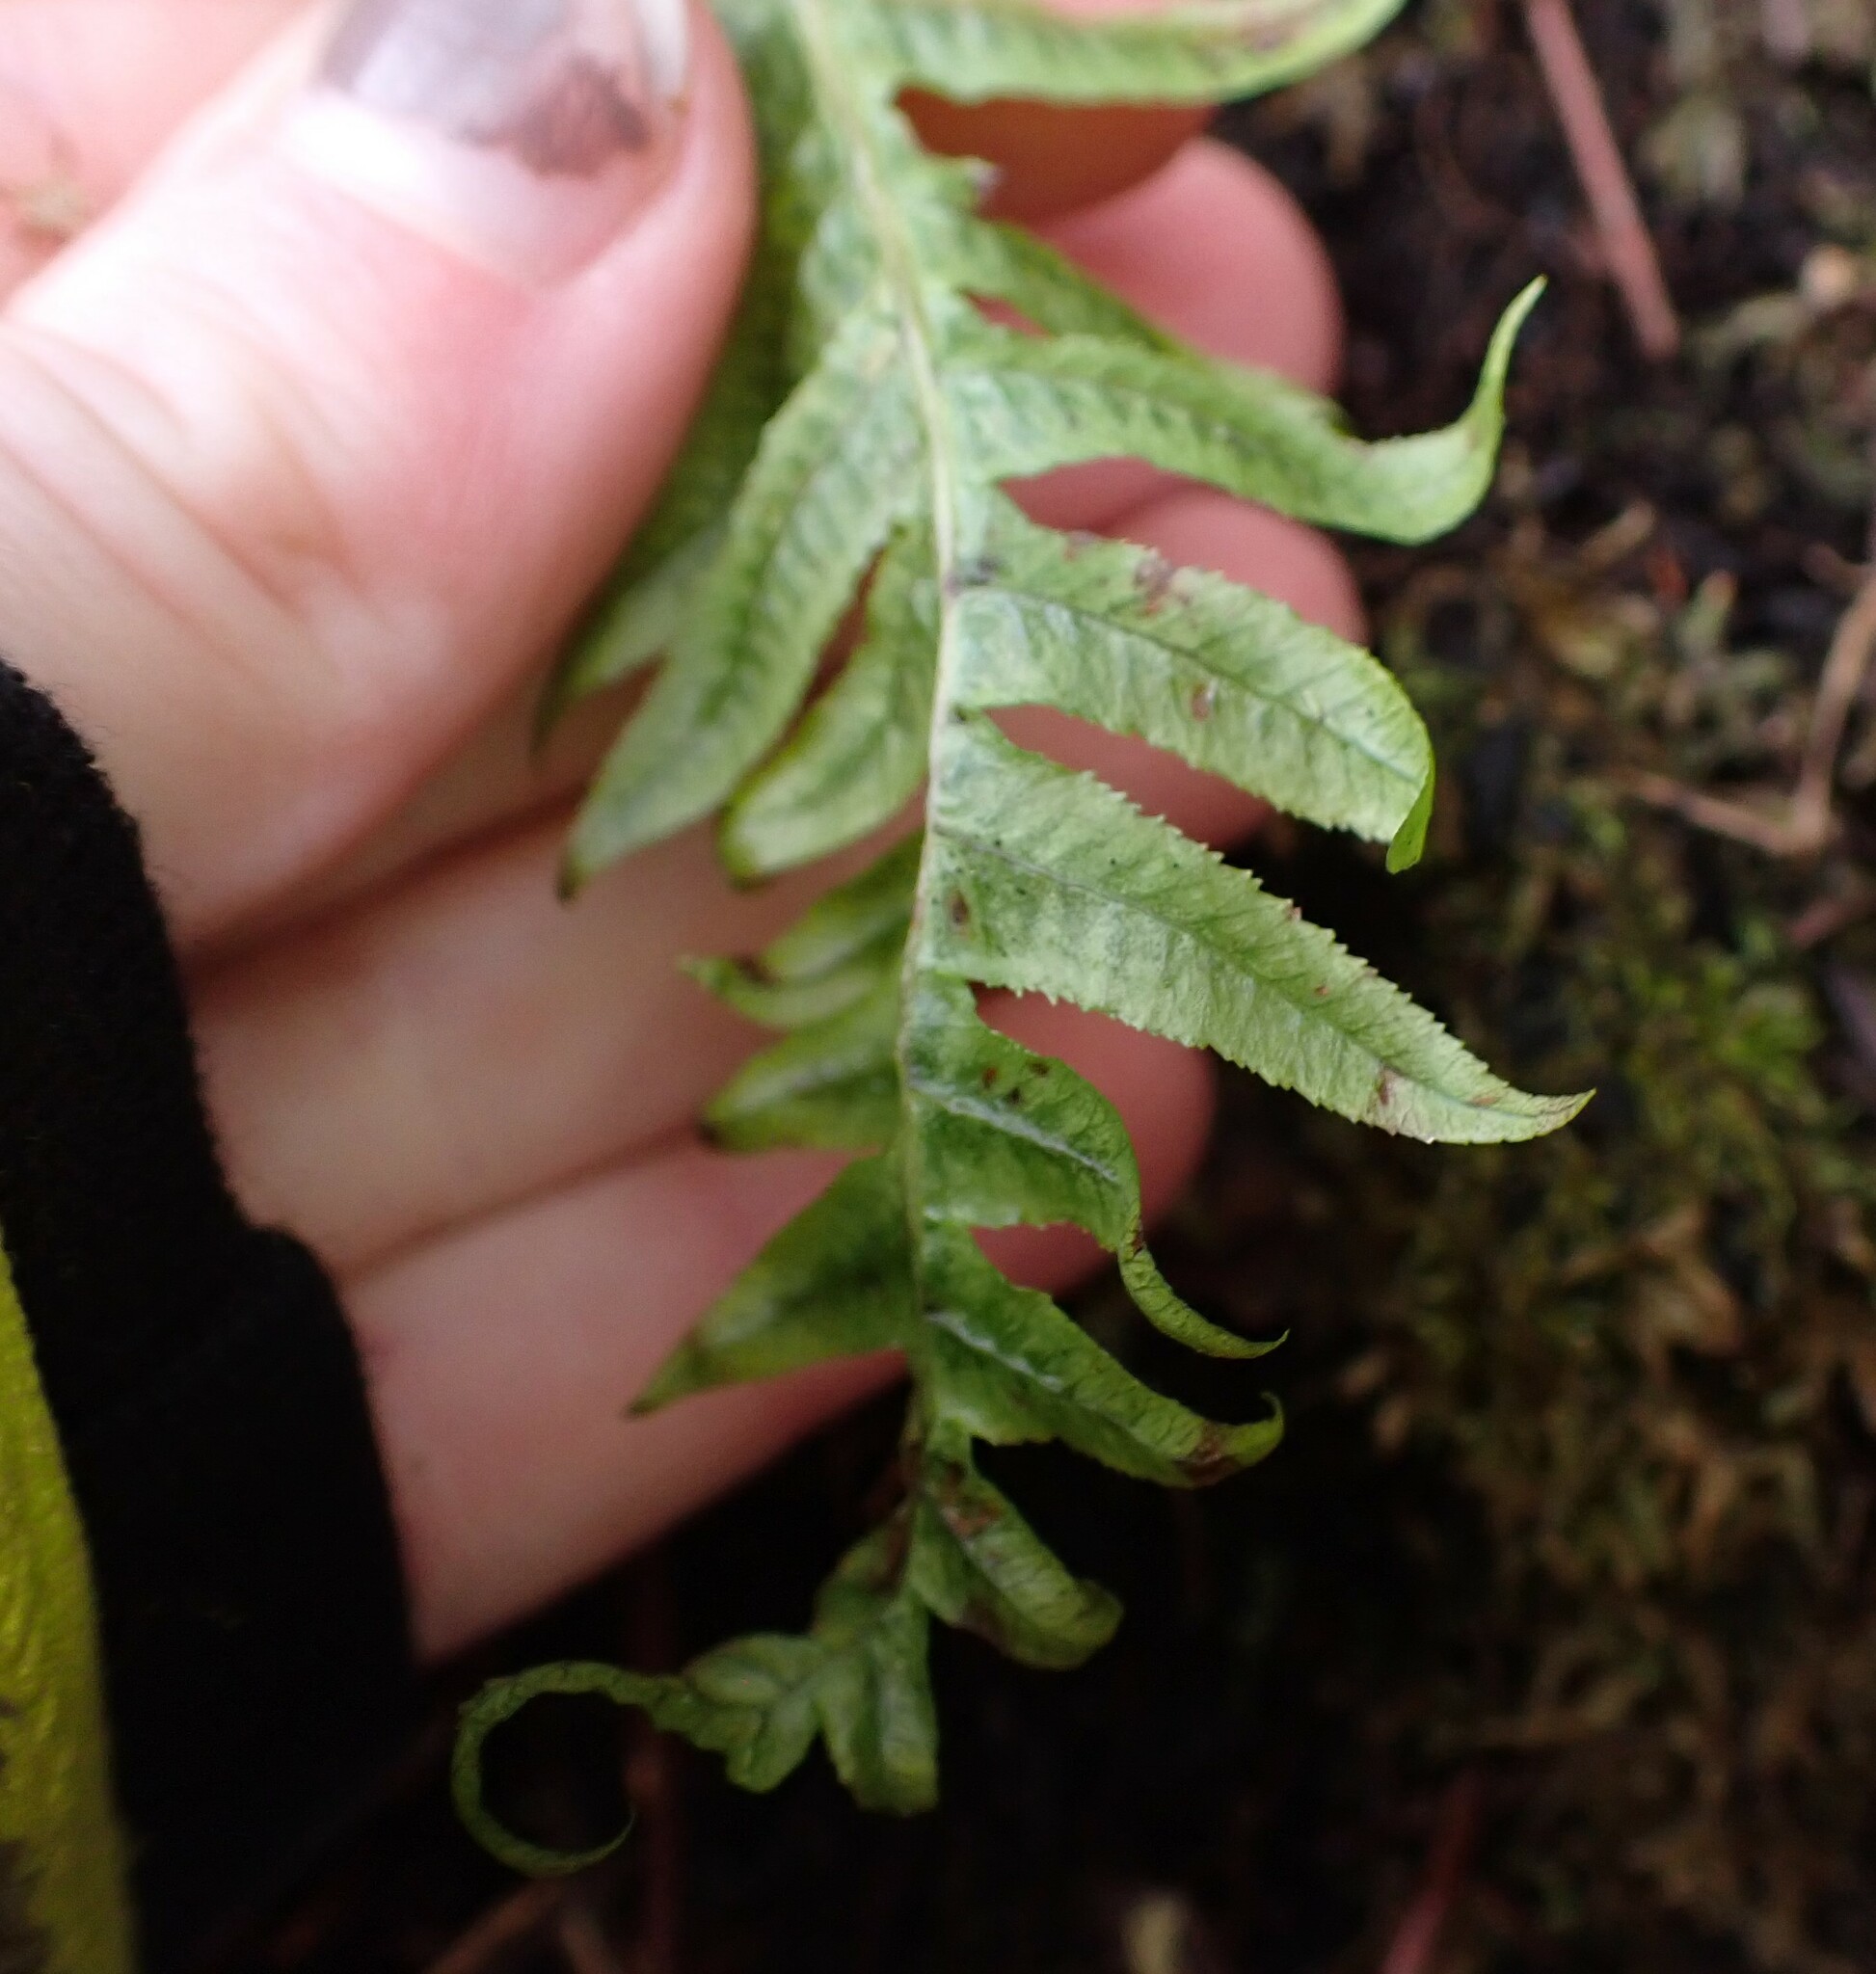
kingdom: Plantae
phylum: Tracheophyta
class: Polypodiopsida
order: Polypodiales
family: Polypodiaceae
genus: Polypodium
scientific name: Polypodium glycyrrhiza
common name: Licorice fern
